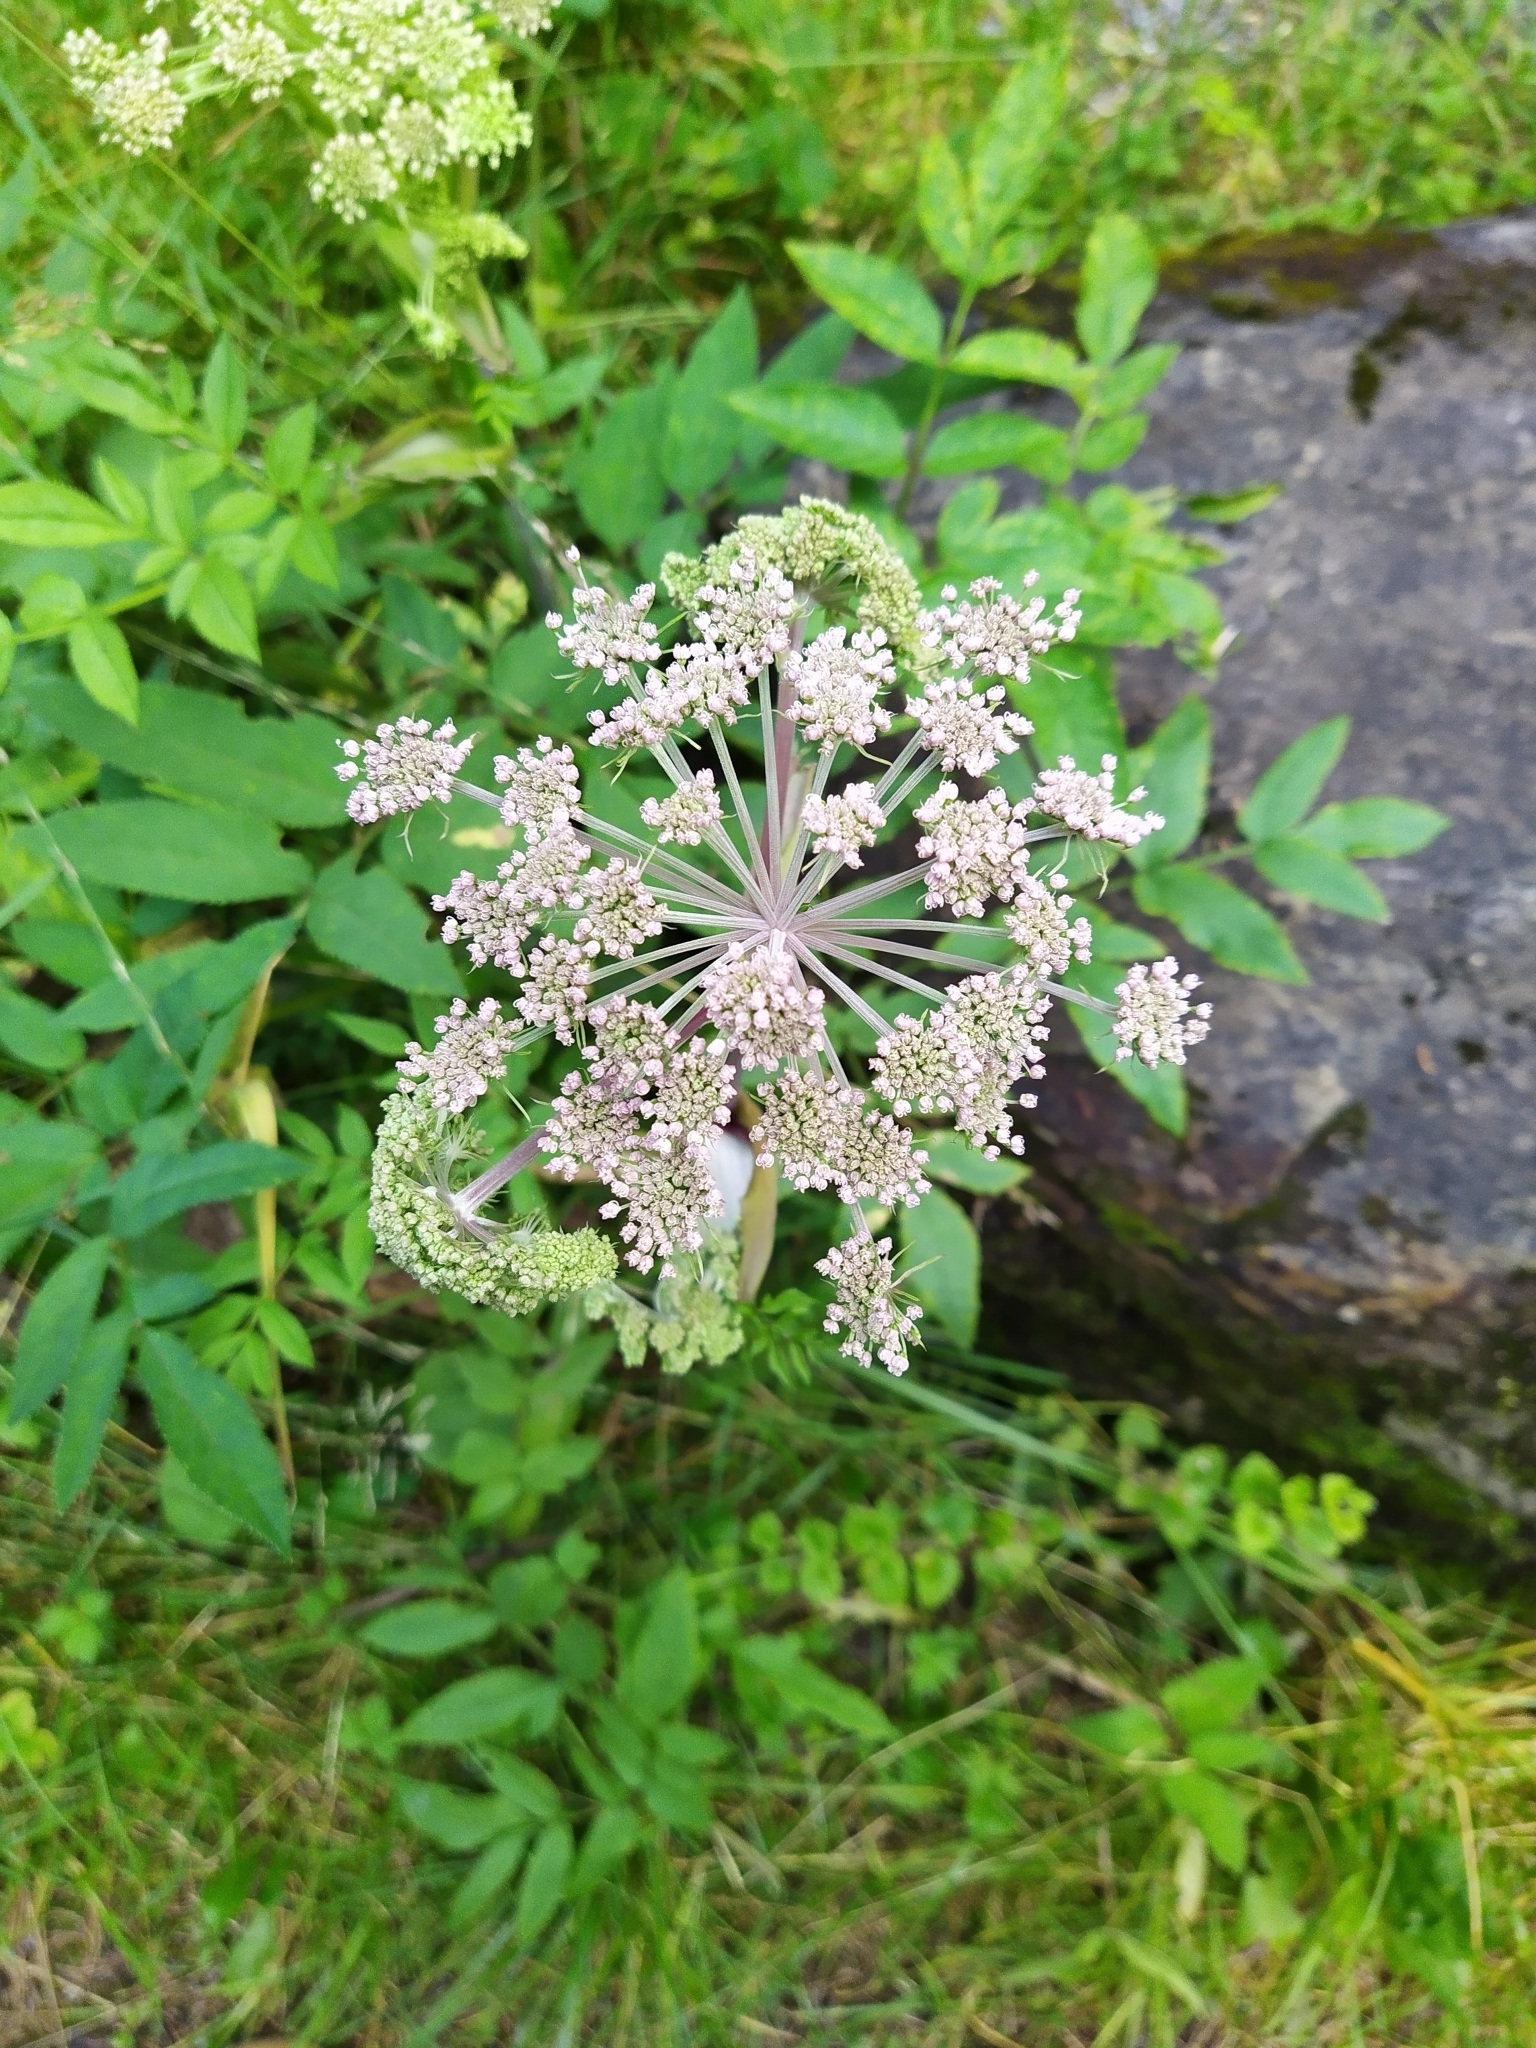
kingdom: Plantae
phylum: Tracheophyta
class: Magnoliopsida
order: Apiales
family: Apiaceae
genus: Angelica
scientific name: Angelica sylvestris
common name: Wild angelica
